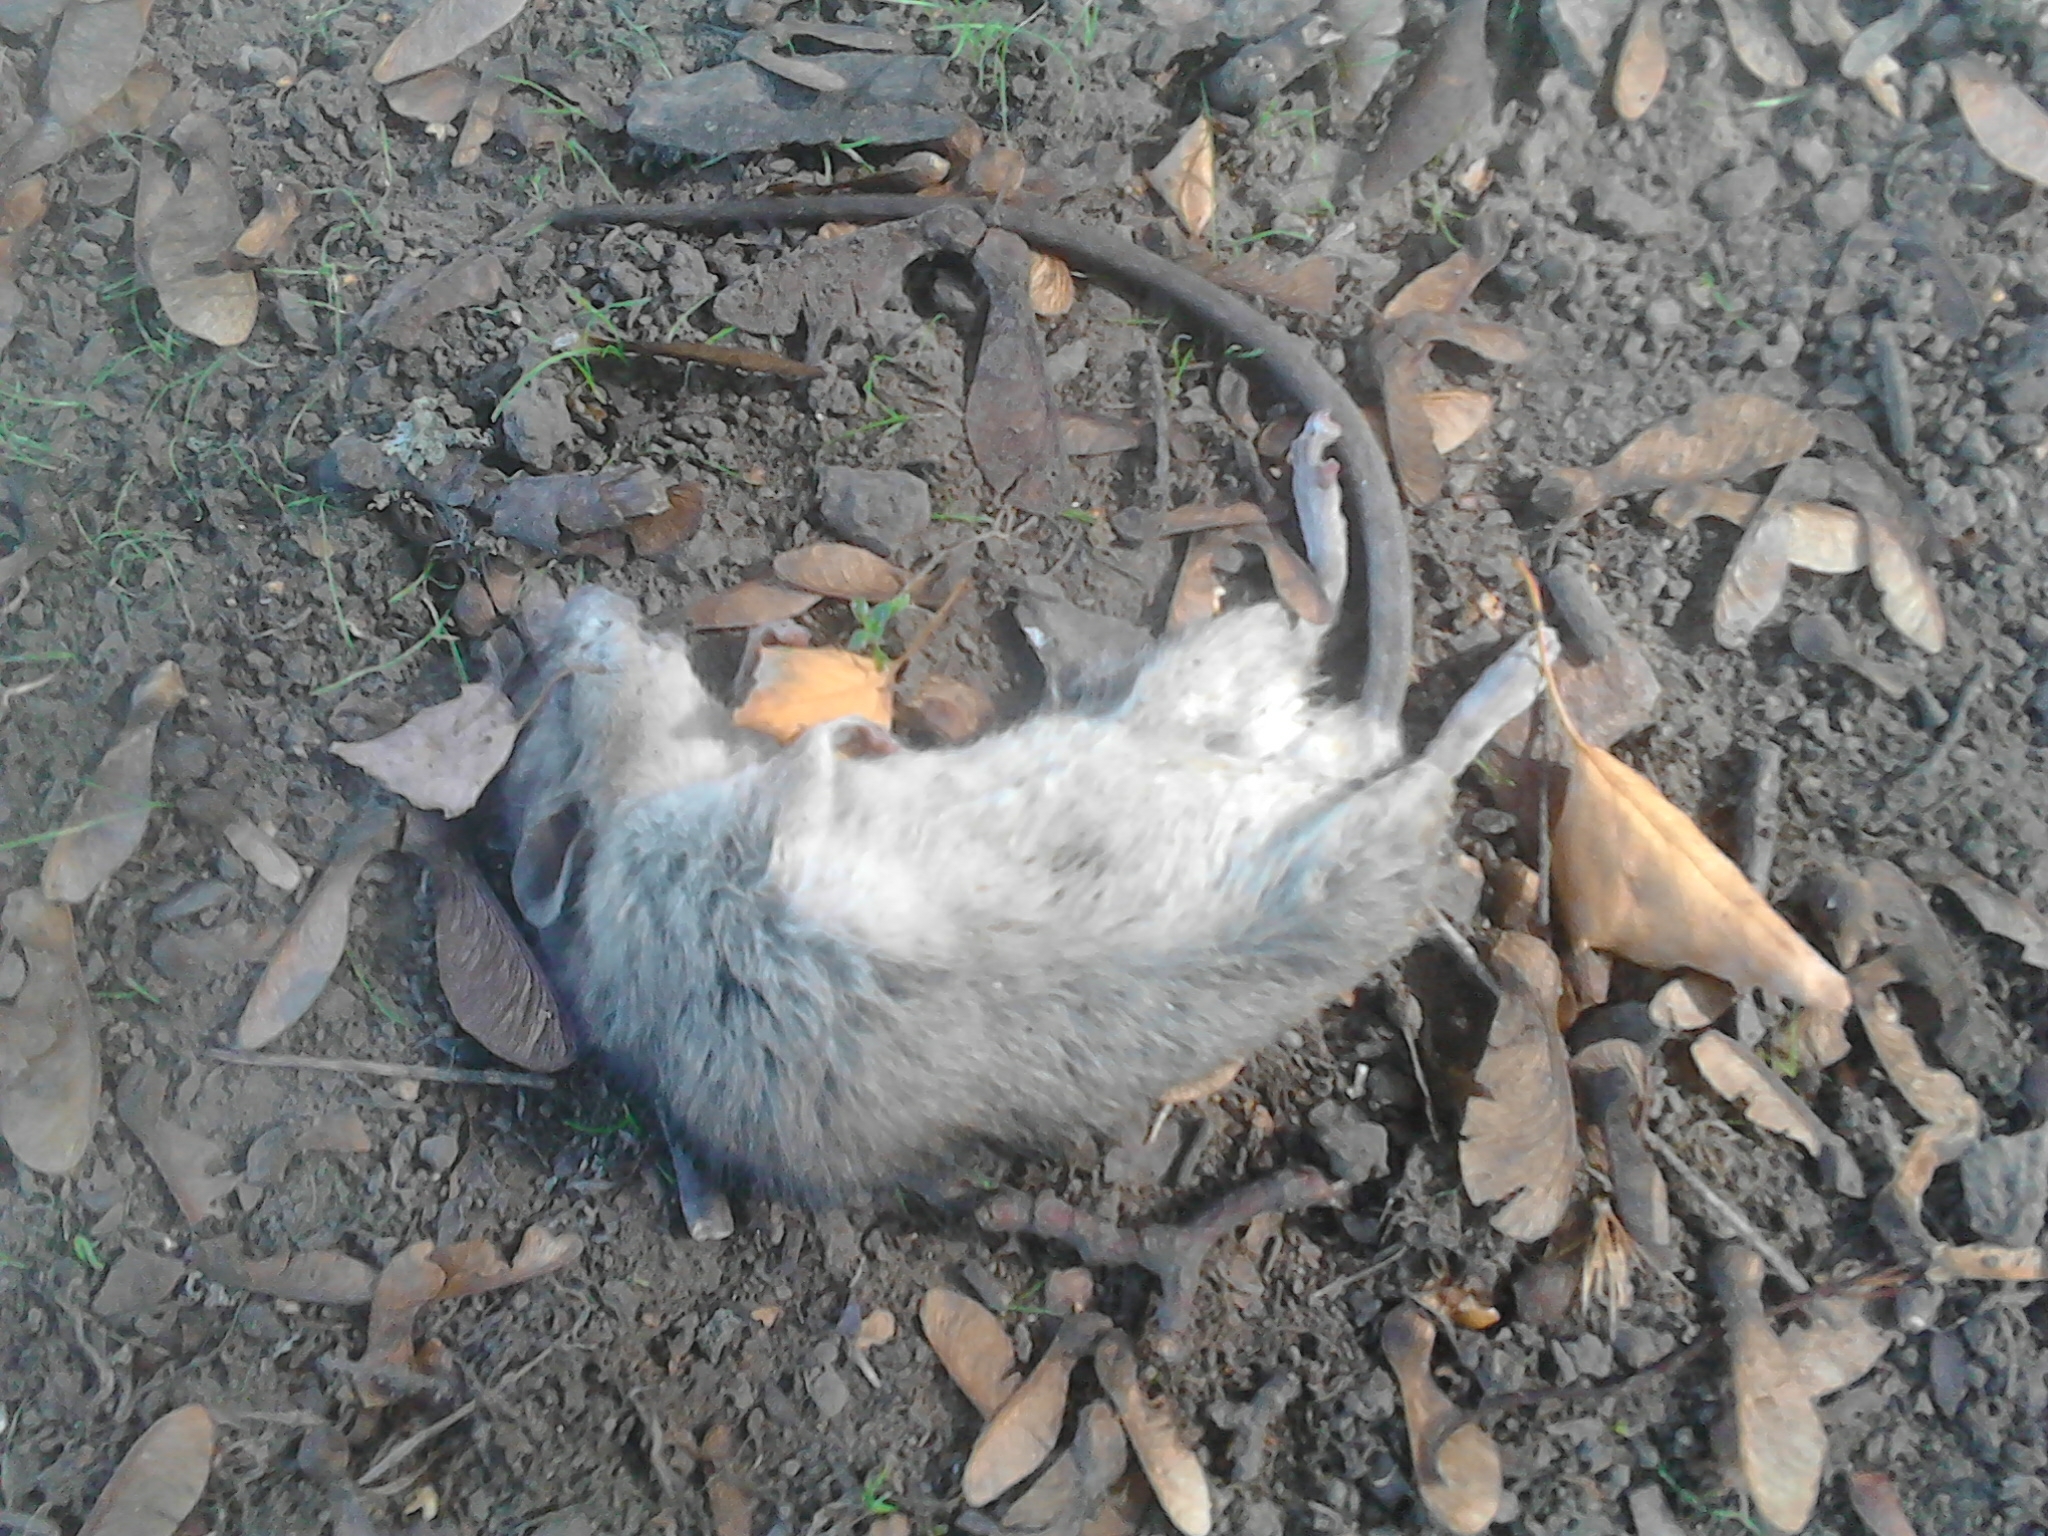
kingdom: Animalia
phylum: Chordata
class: Mammalia
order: Rodentia
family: Muridae
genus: Rattus
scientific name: Rattus rattus
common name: Black rat
